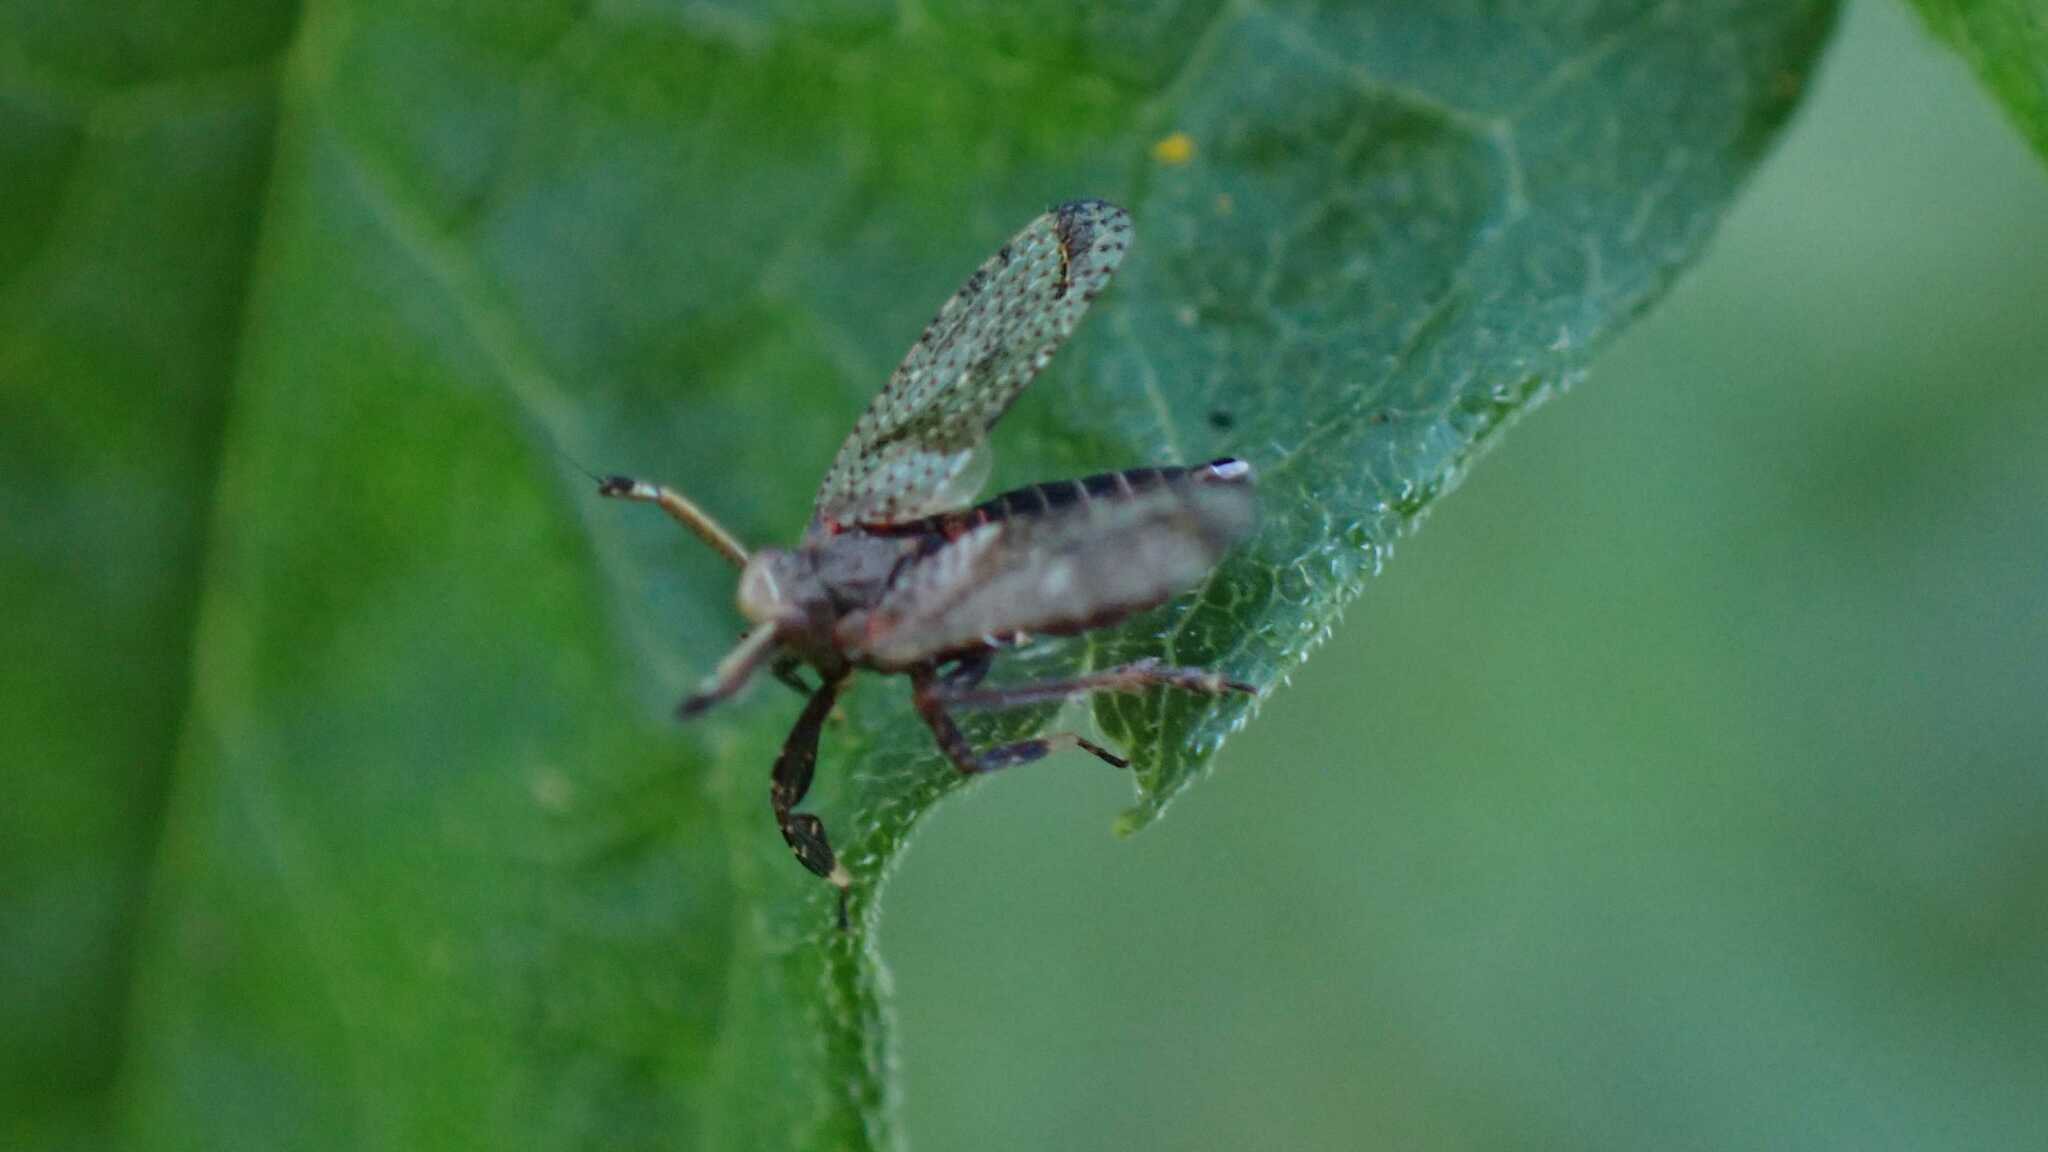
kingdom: Animalia
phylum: Arthropoda
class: Insecta
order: Hemiptera
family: Delphacidae
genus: Asiraca
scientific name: Asiraca clavicornis
